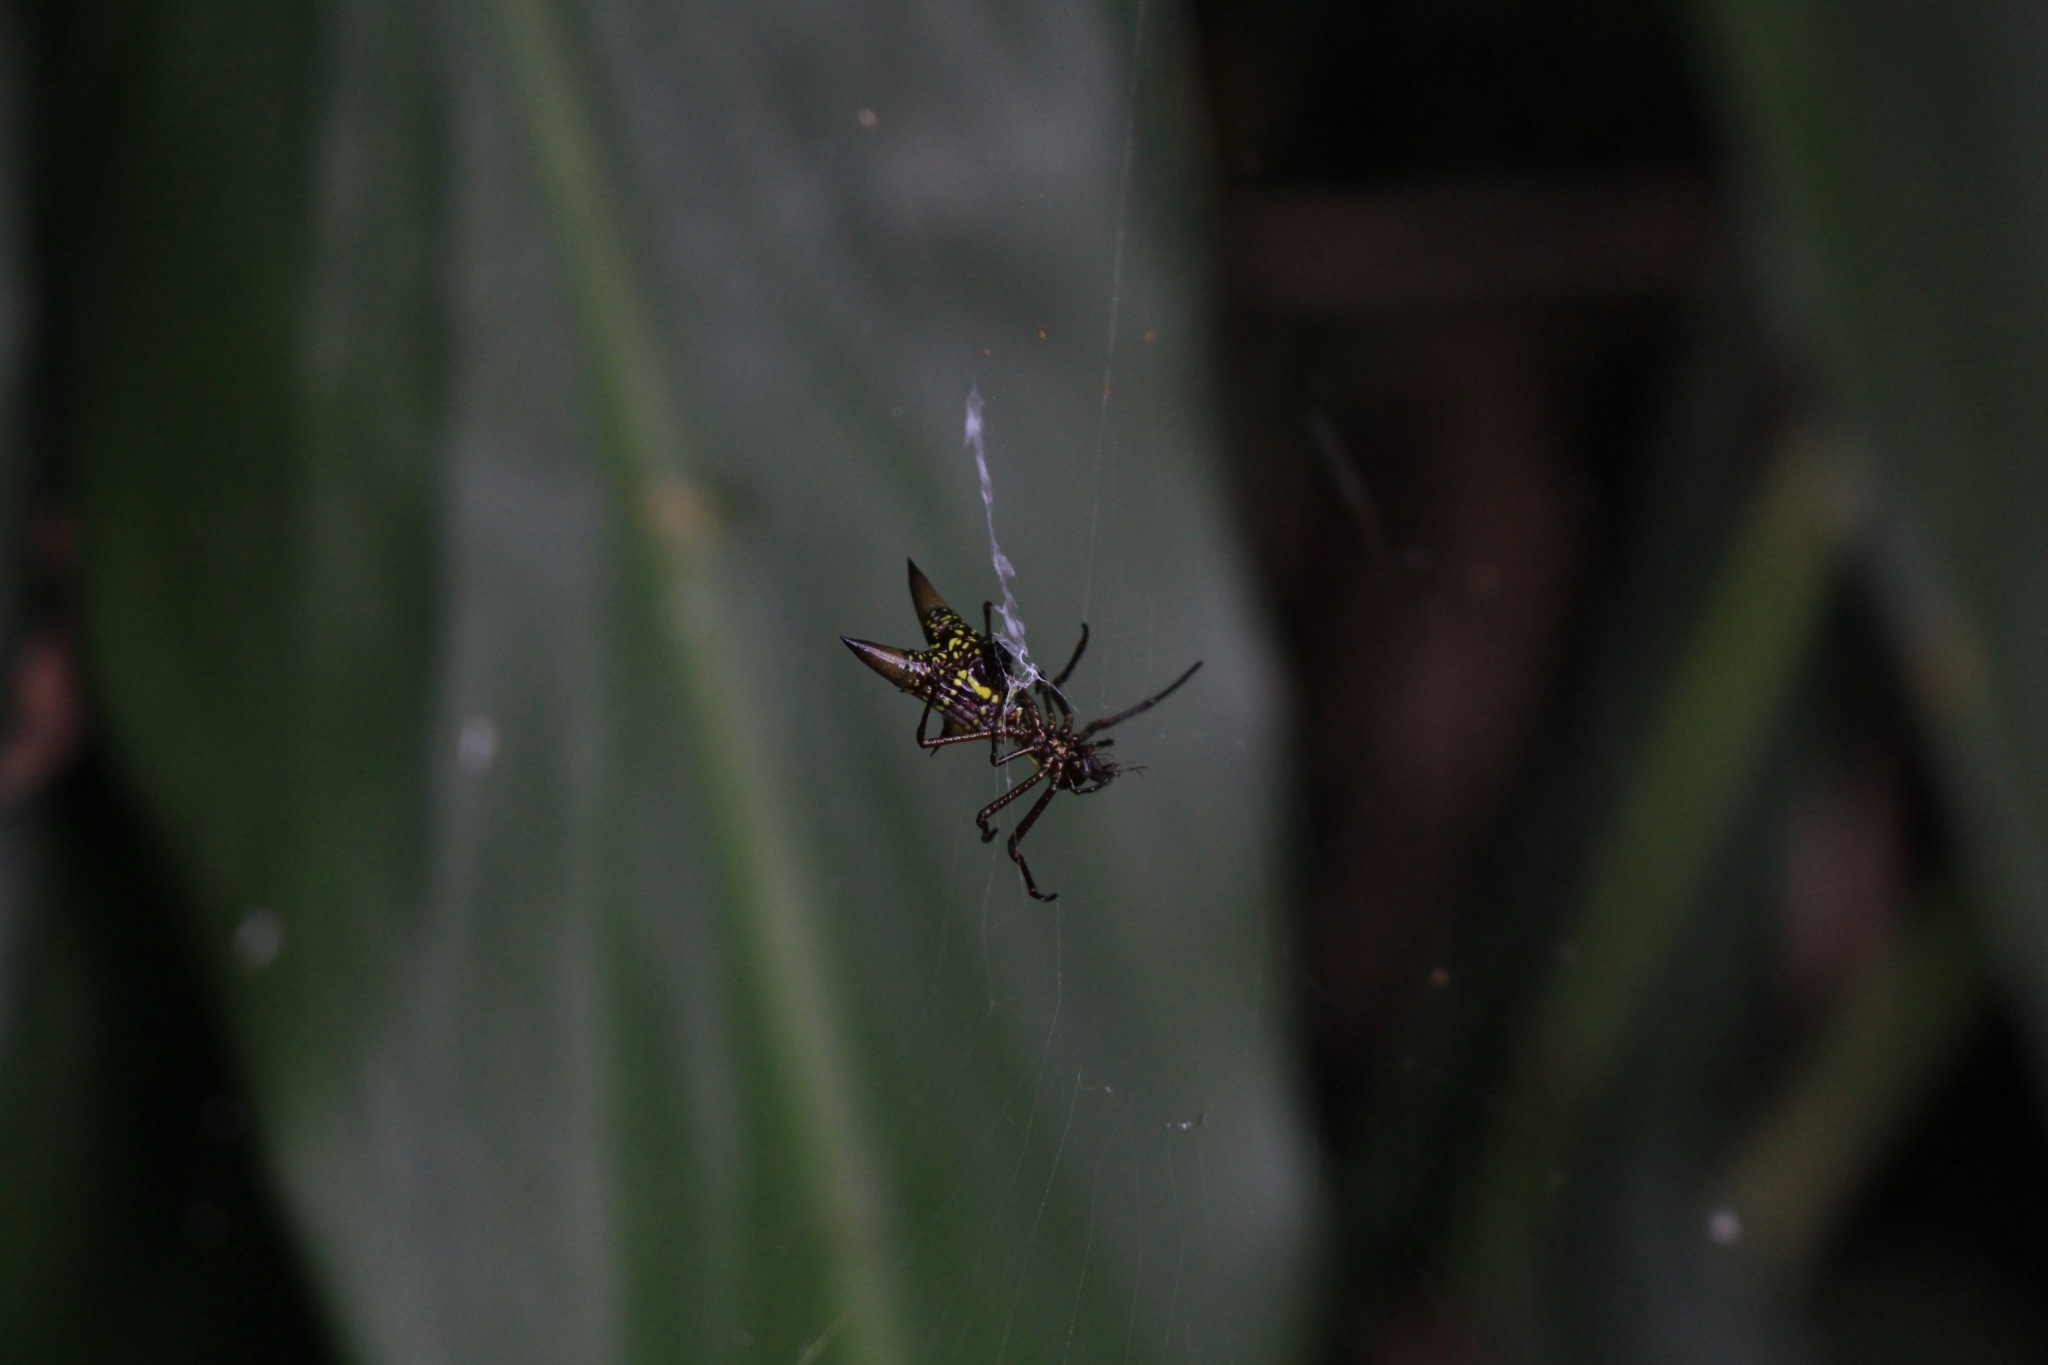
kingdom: Animalia
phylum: Arthropoda
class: Arachnida
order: Araneae
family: Araneidae
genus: Micrathena
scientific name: Micrathena sexspinosa
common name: Orb weavers
